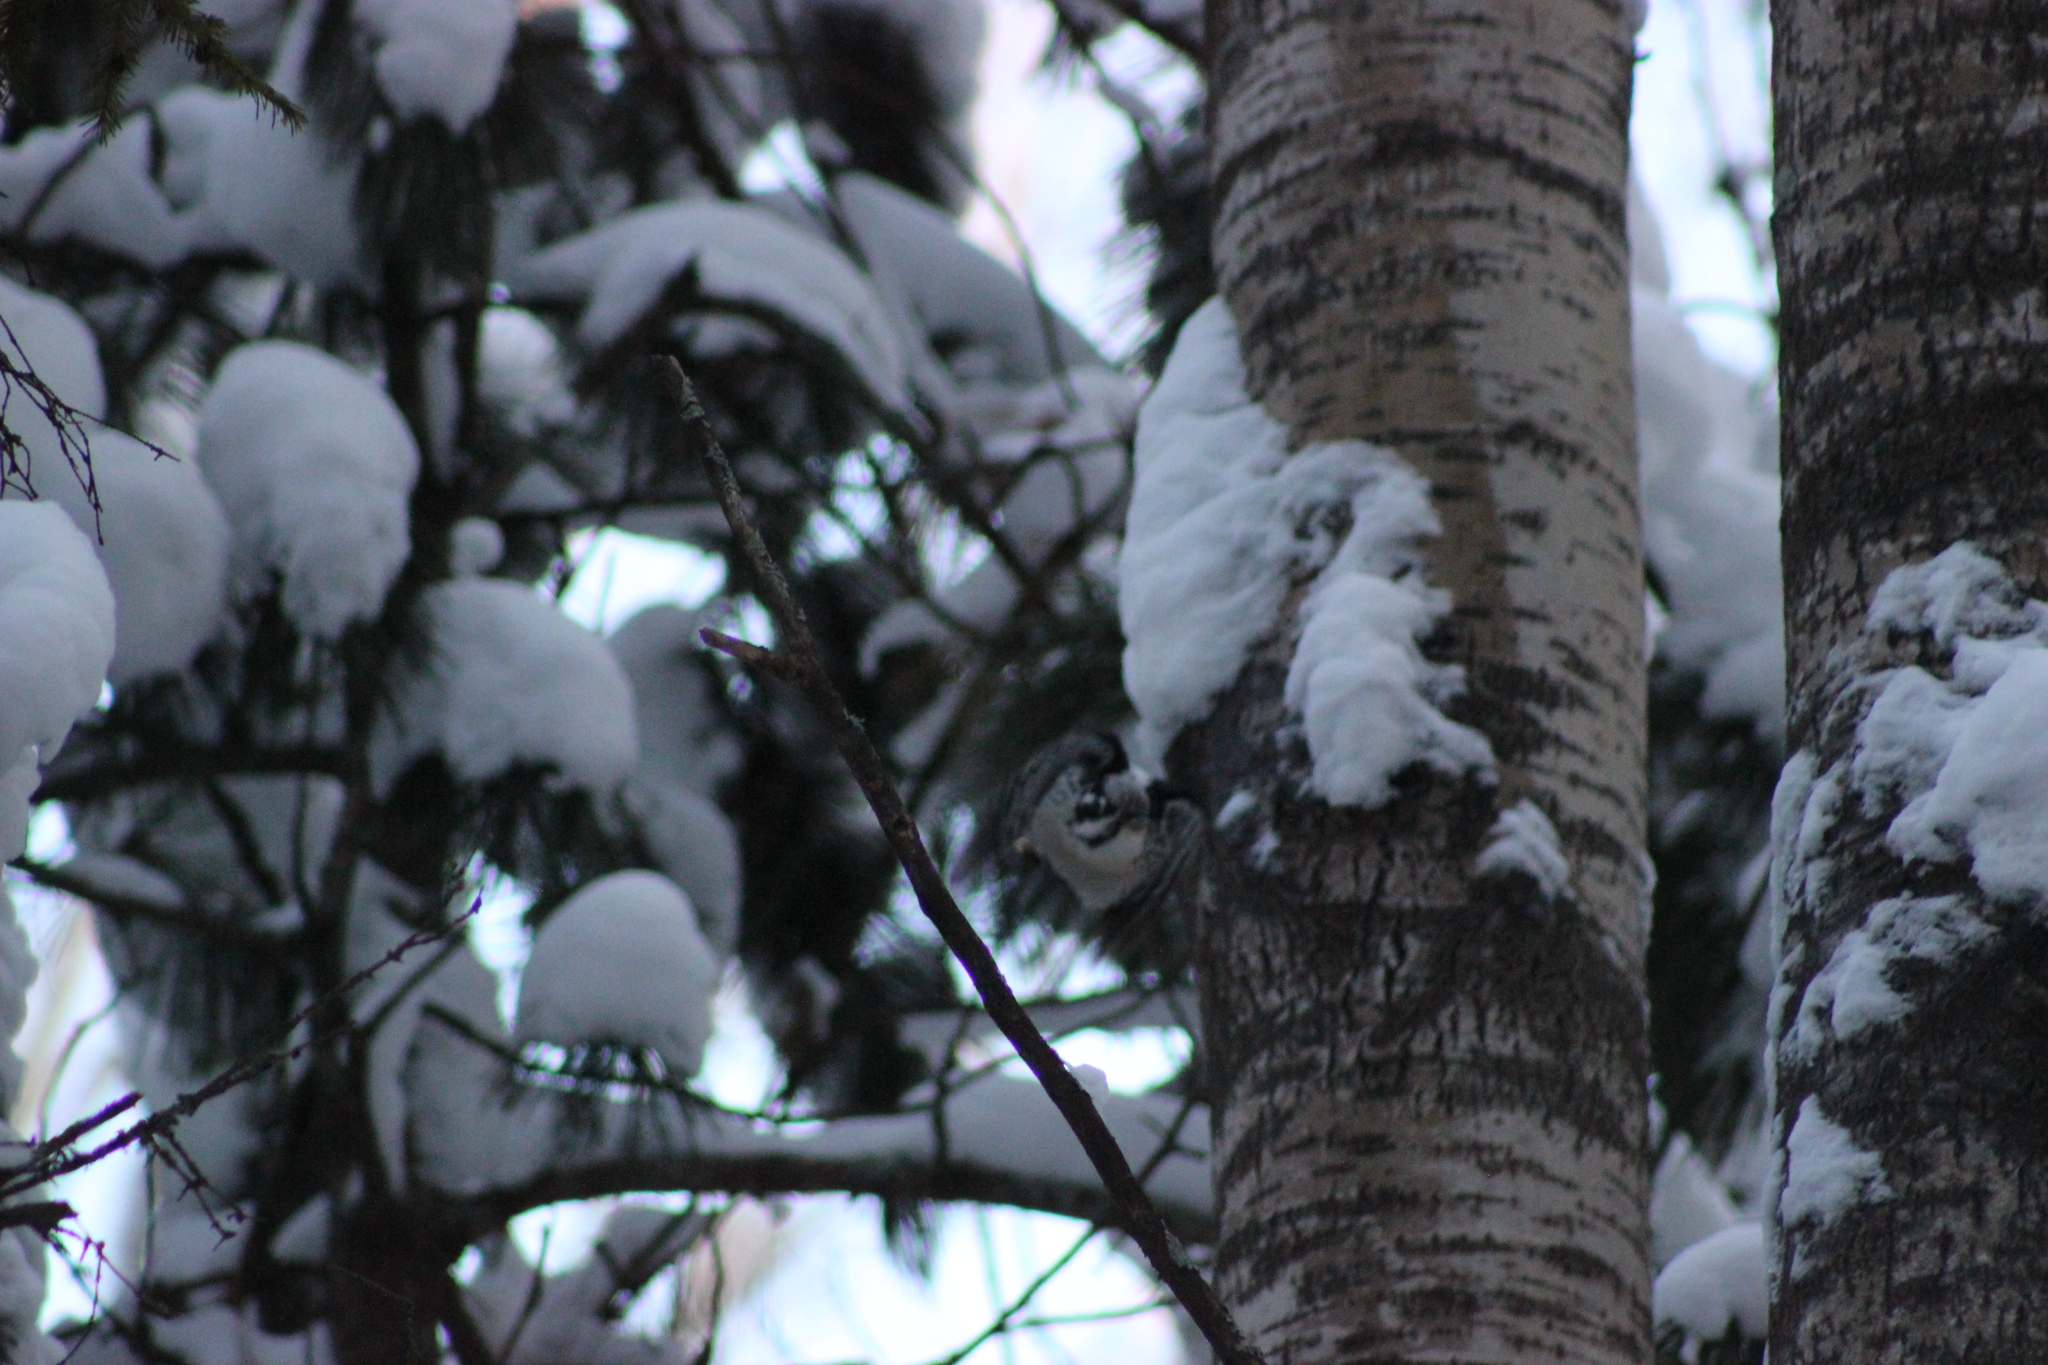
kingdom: Animalia
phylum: Chordata
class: Aves
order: Piciformes
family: Picidae
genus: Picoides
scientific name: Picoides tridactylus
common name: Eurasian three-toed woodpecker
